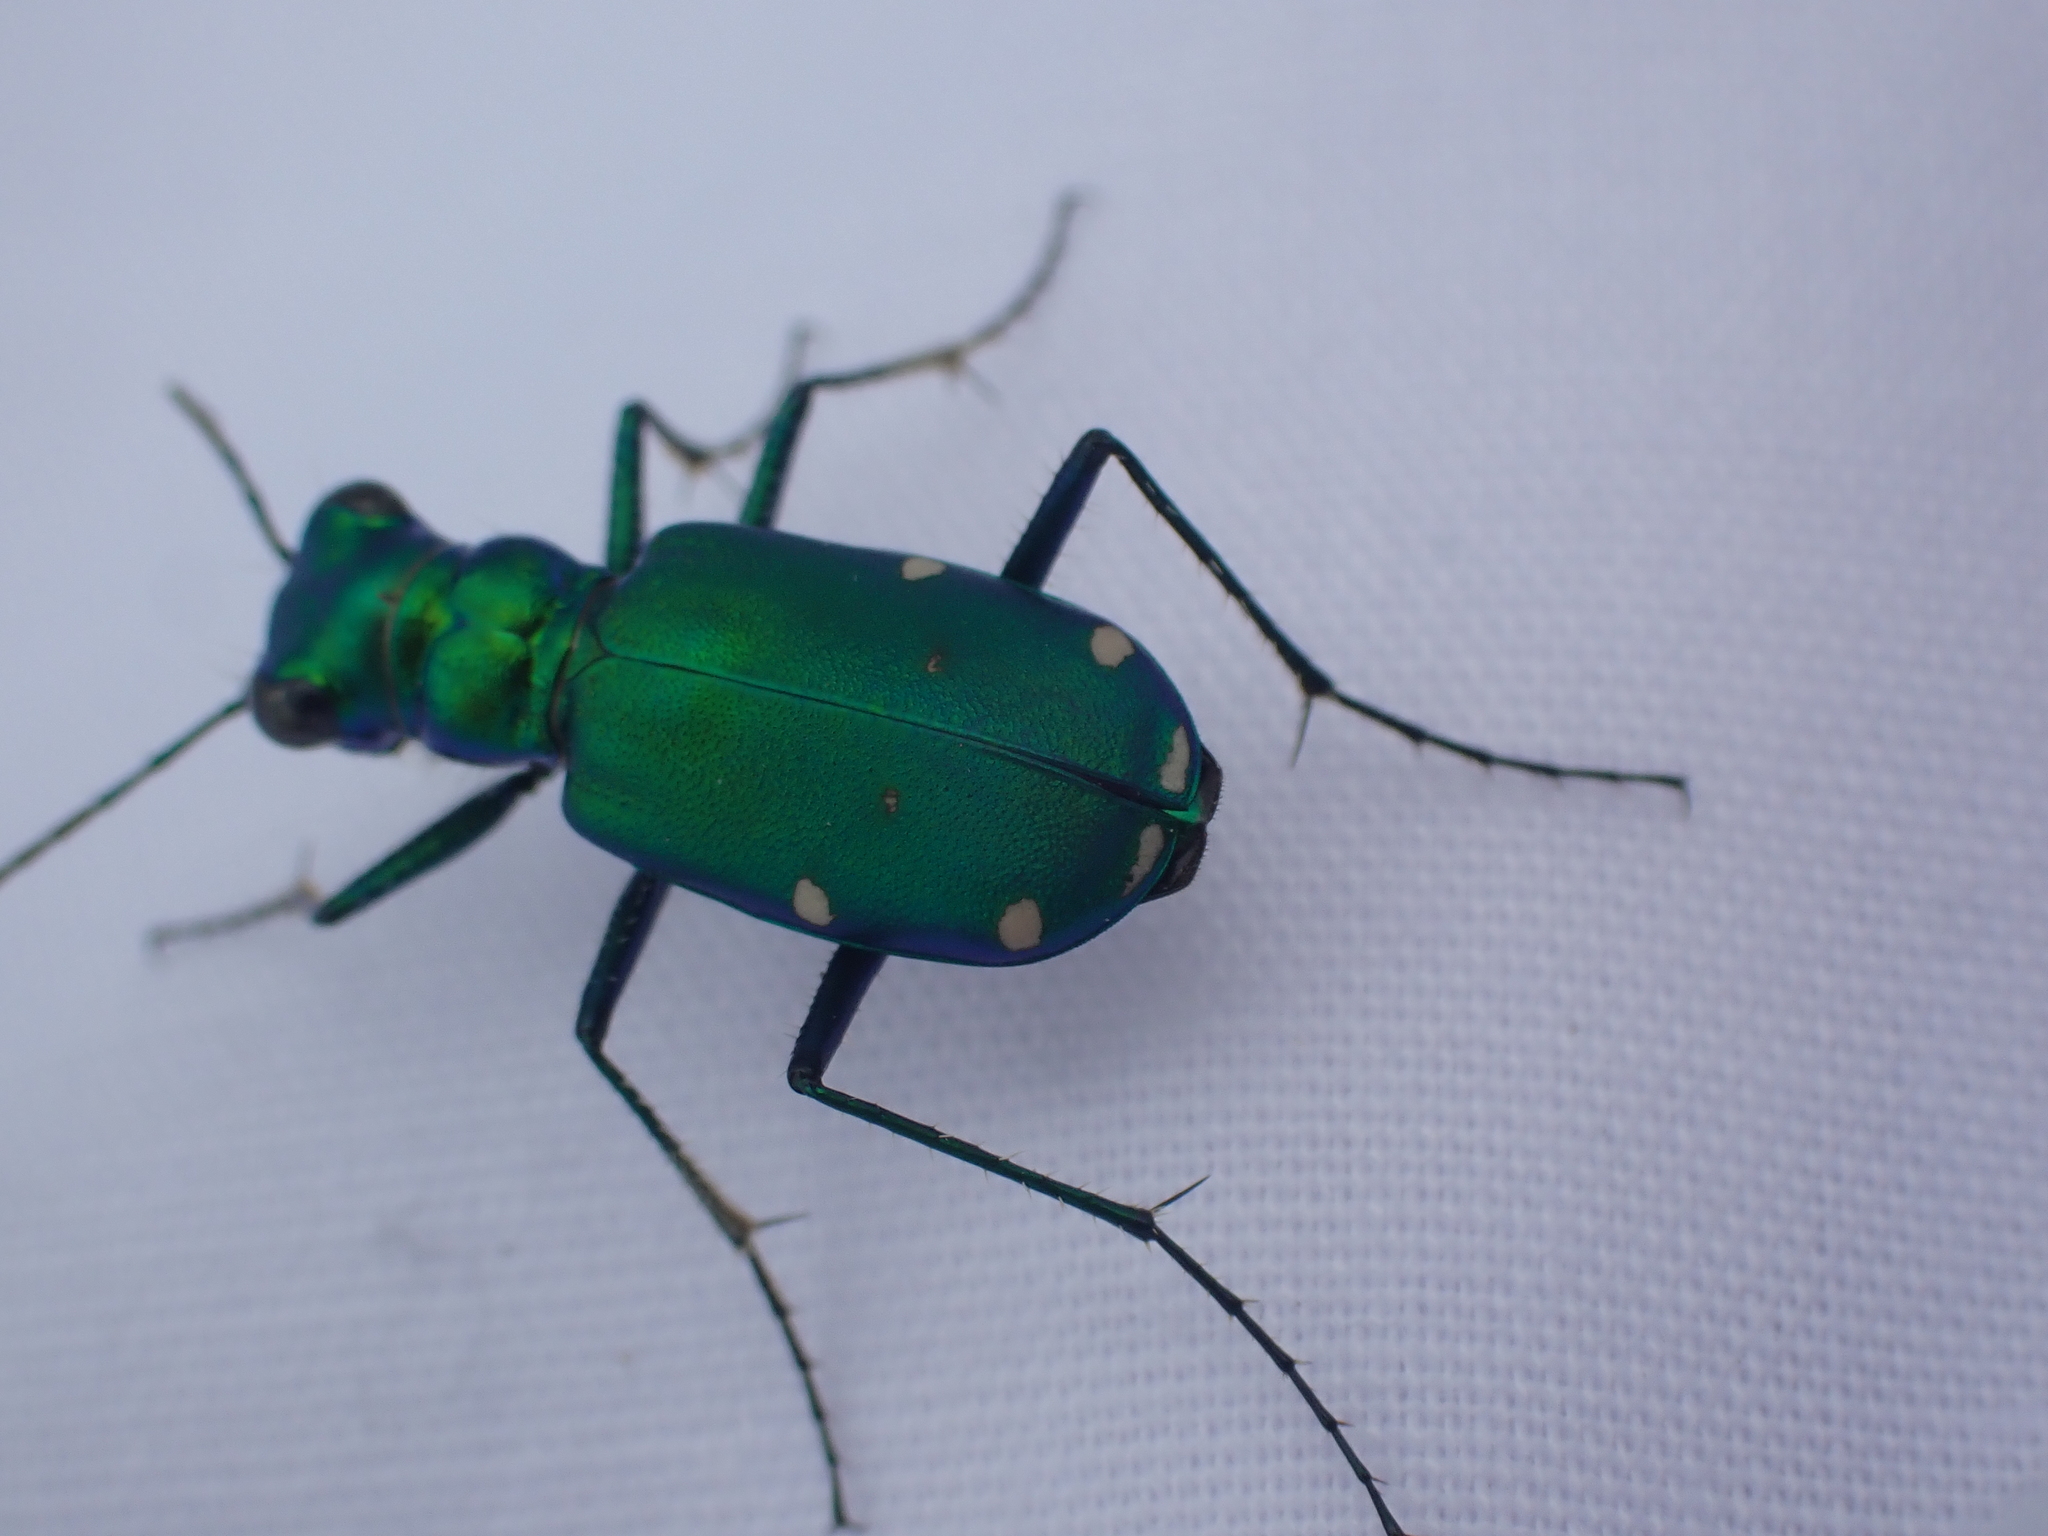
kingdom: Animalia
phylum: Arthropoda
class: Insecta
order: Coleoptera
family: Carabidae
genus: Cicindela
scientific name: Cicindela sexguttata
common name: Six-spotted tiger beetle
